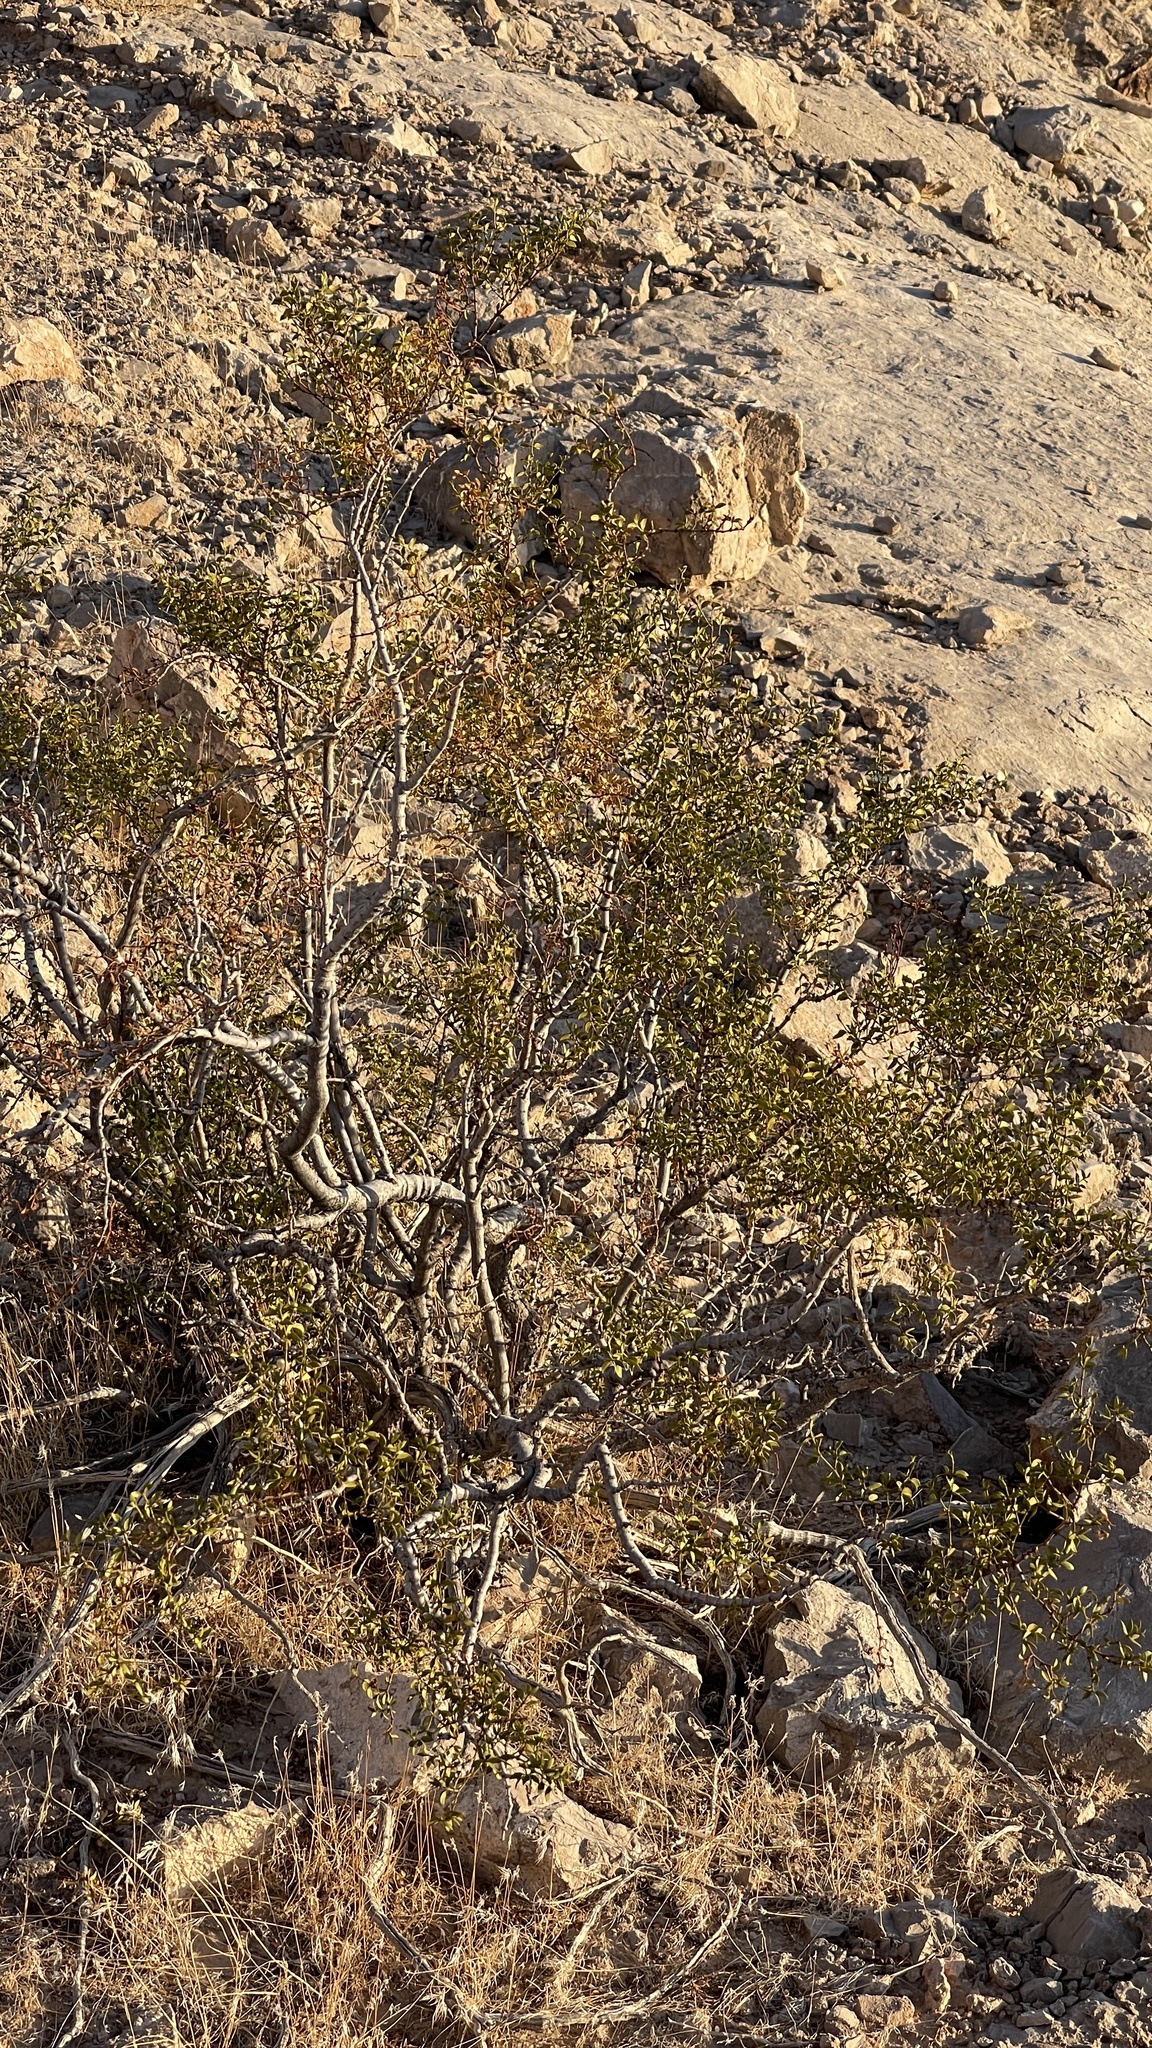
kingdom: Plantae
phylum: Tracheophyta
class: Magnoliopsida
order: Zygophyllales
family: Zygophyllaceae
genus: Larrea
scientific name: Larrea tridentata
